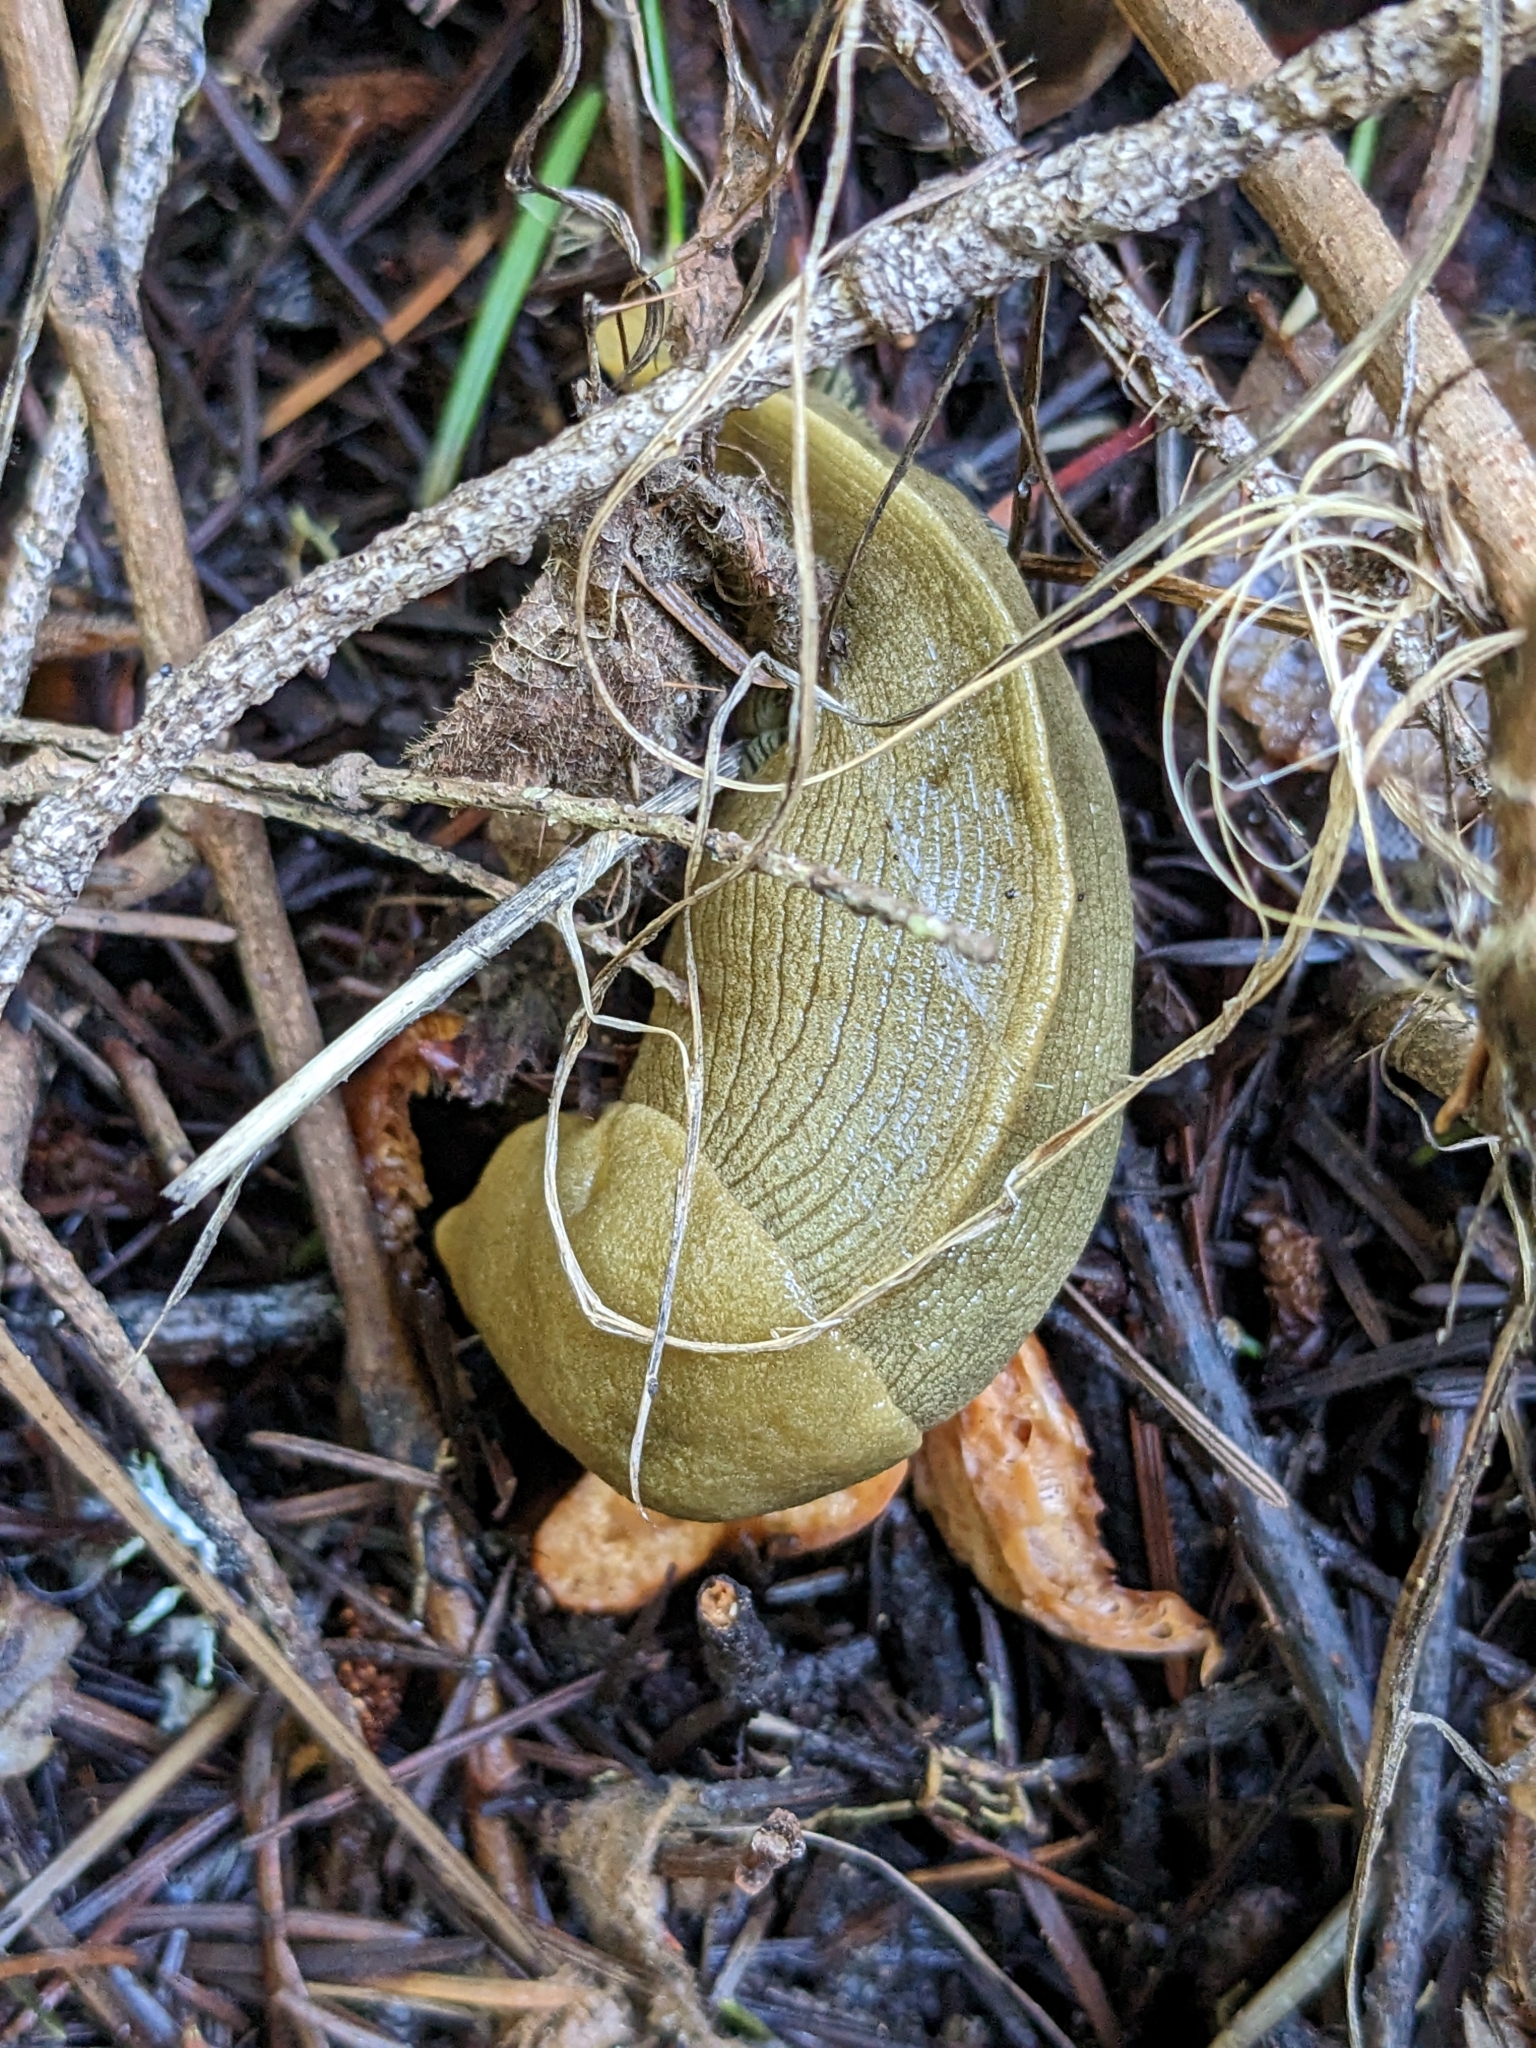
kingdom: Animalia
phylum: Mollusca
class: Gastropoda
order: Stylommatophora
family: Ariolimacidae
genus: Ariolimax
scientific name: Ariolimax buttoni
